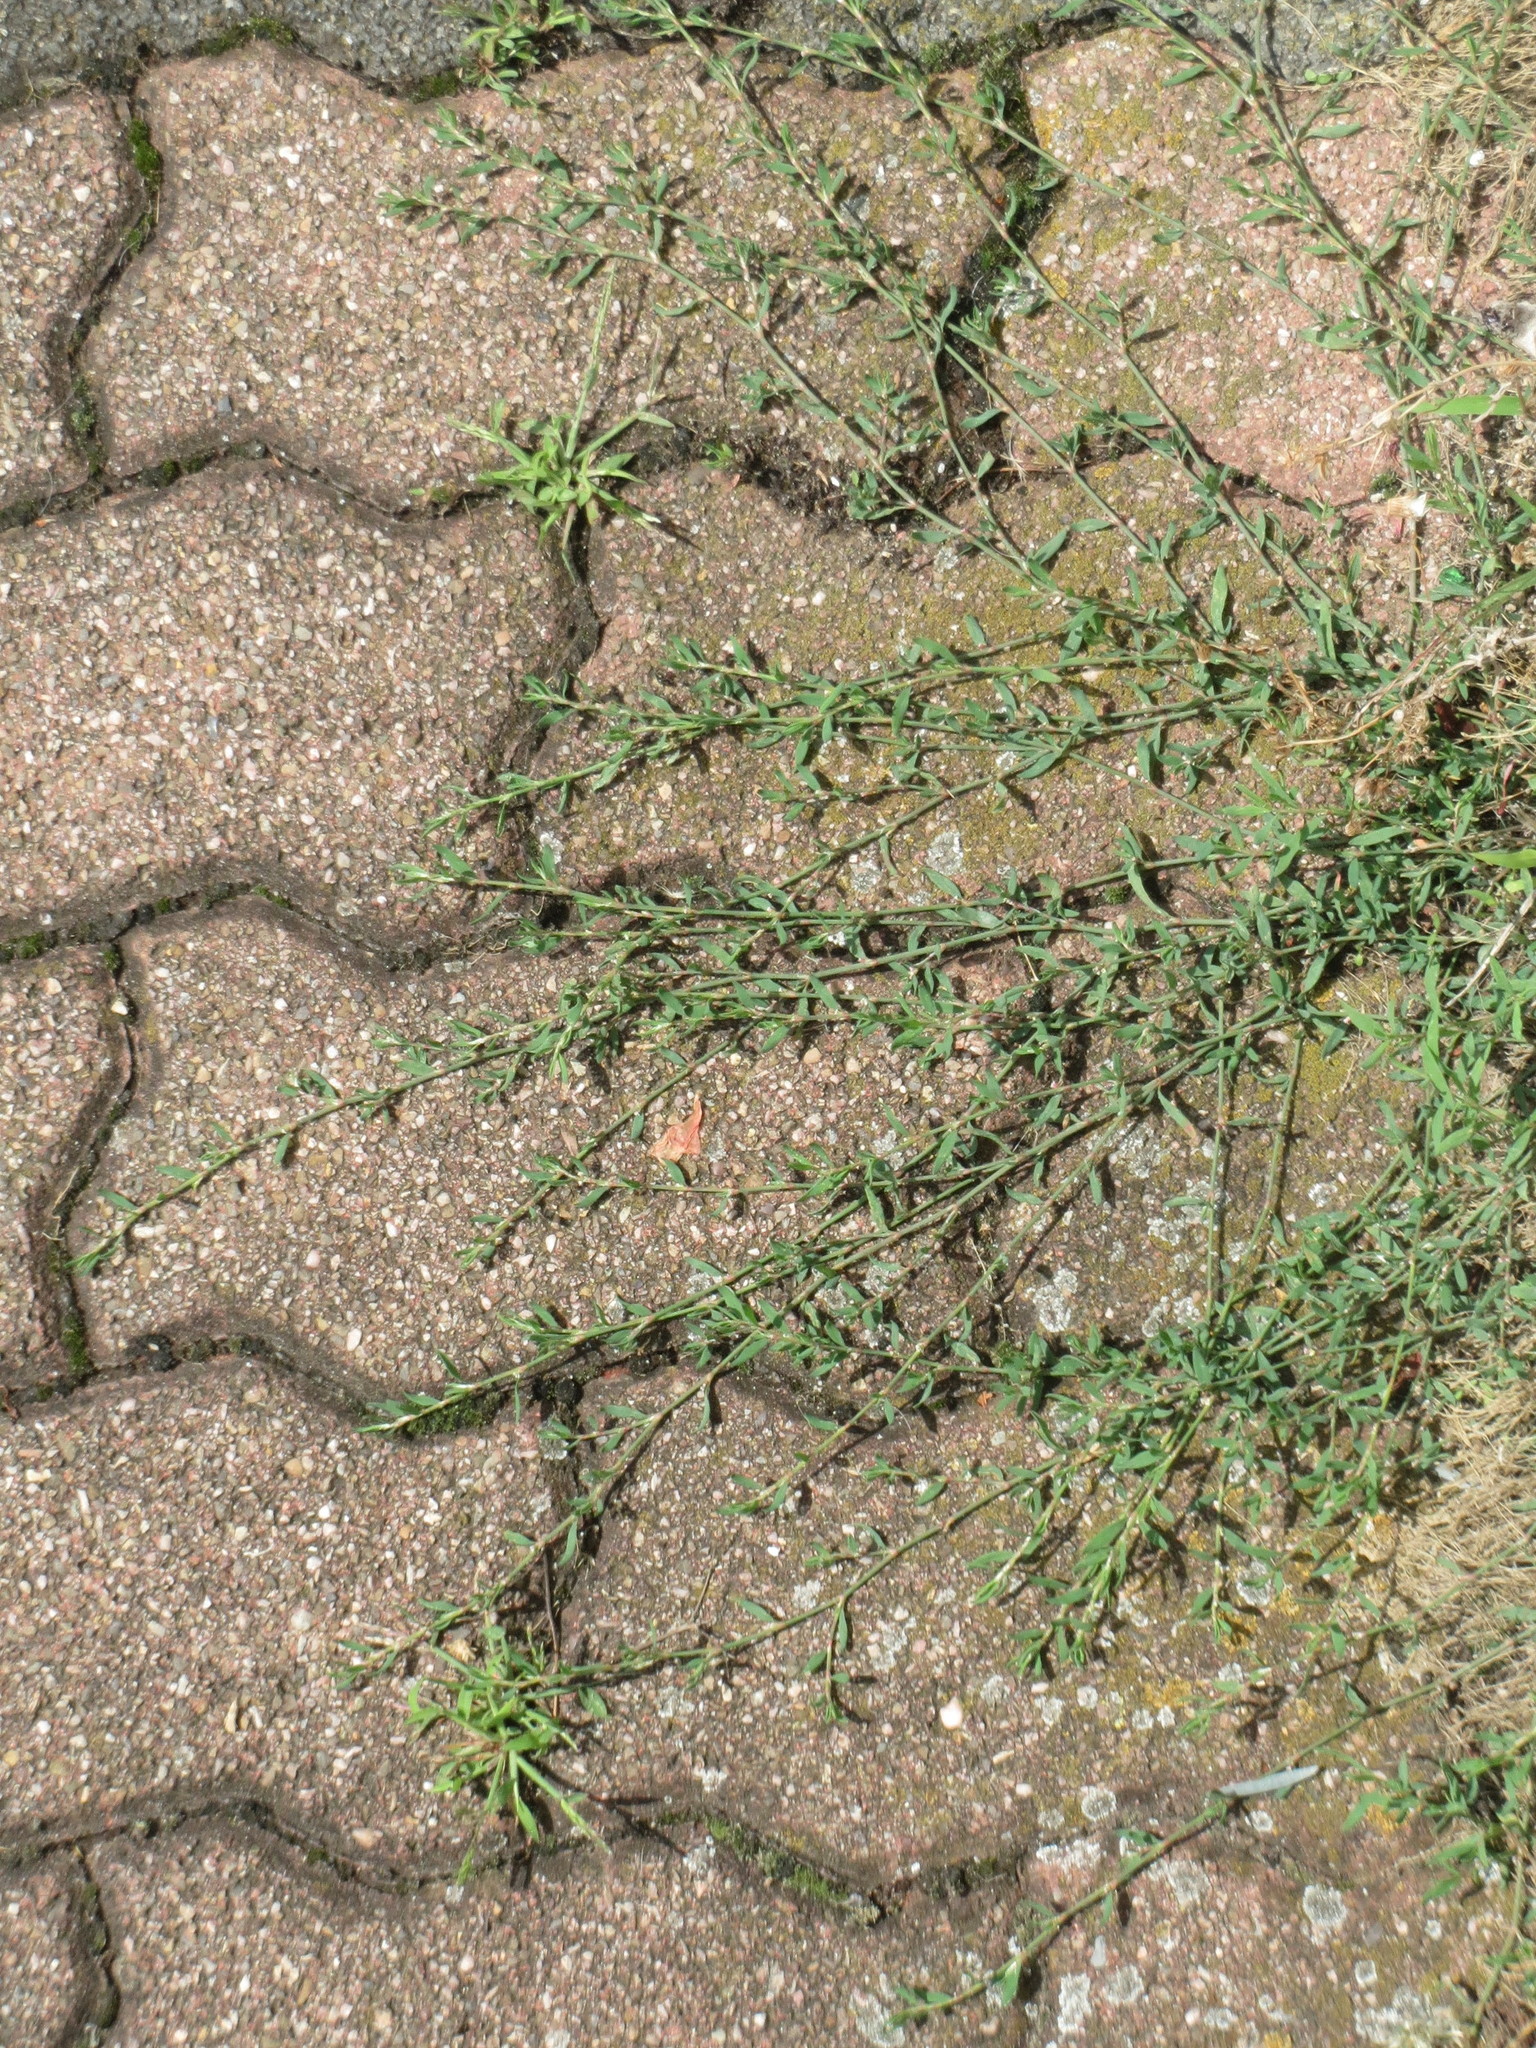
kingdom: Plantae
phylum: Tracheophyta
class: Magnoliopsida
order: Caryophyllales
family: Polygonaceae
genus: Polygonum
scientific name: Polygonum aviculare
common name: Prostrate knotweed
